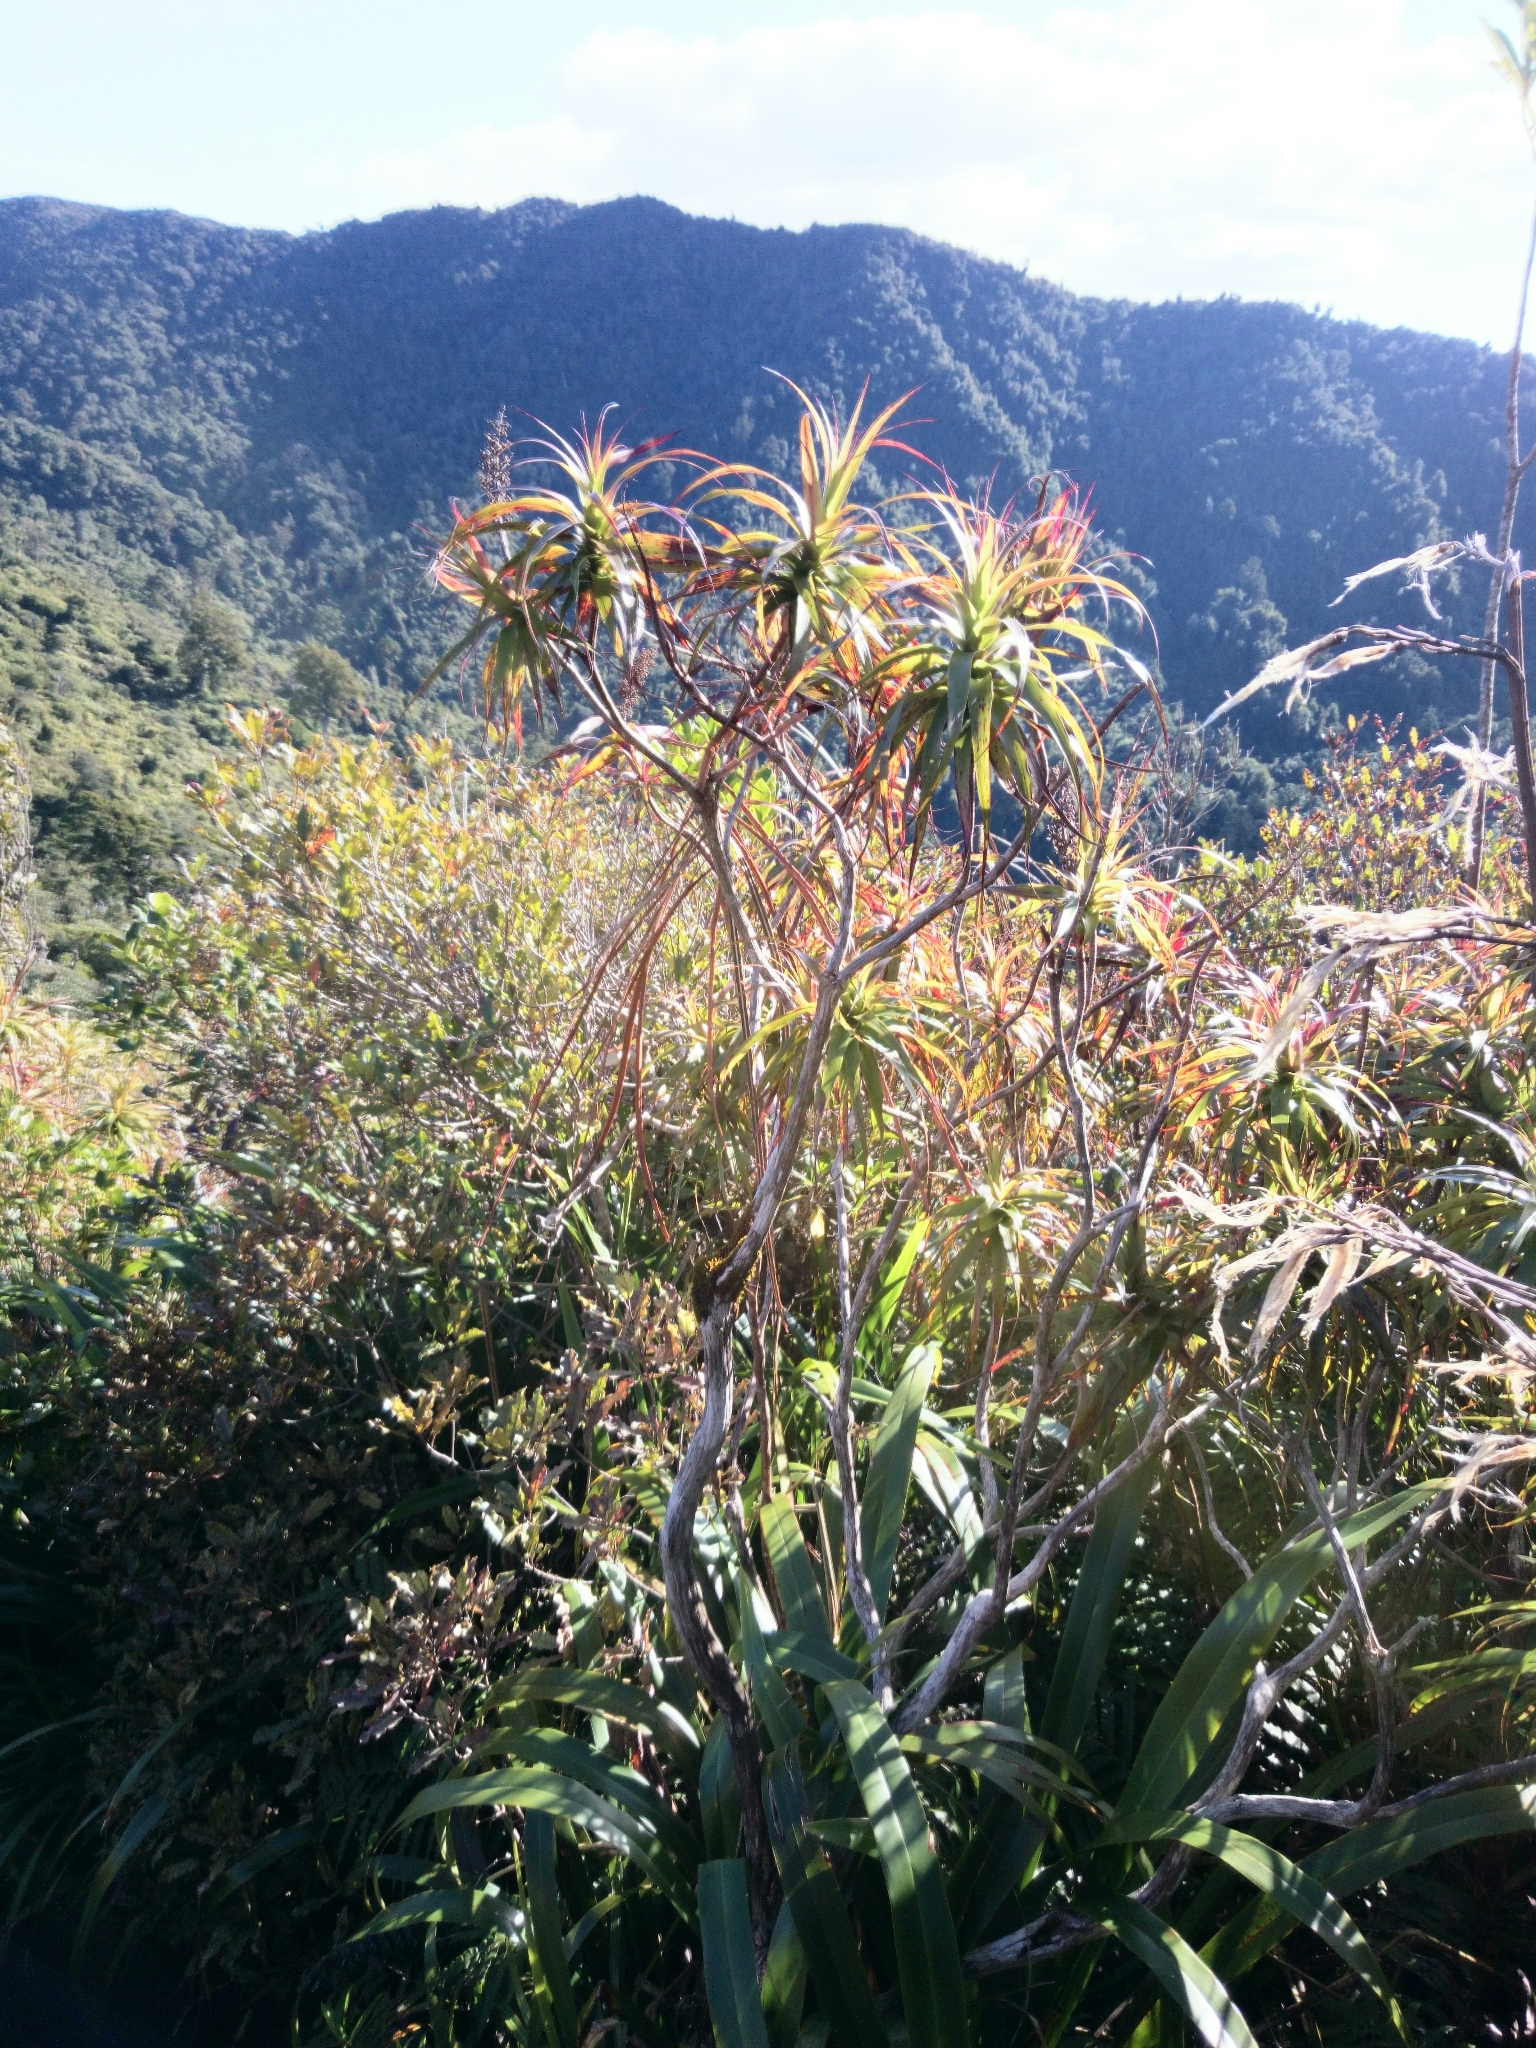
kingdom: Plantae
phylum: Tracheophyta
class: Magnoliopsida
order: Ericales
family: Ericaceae
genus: Dracophyllum
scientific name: Dracophyllum traversii
